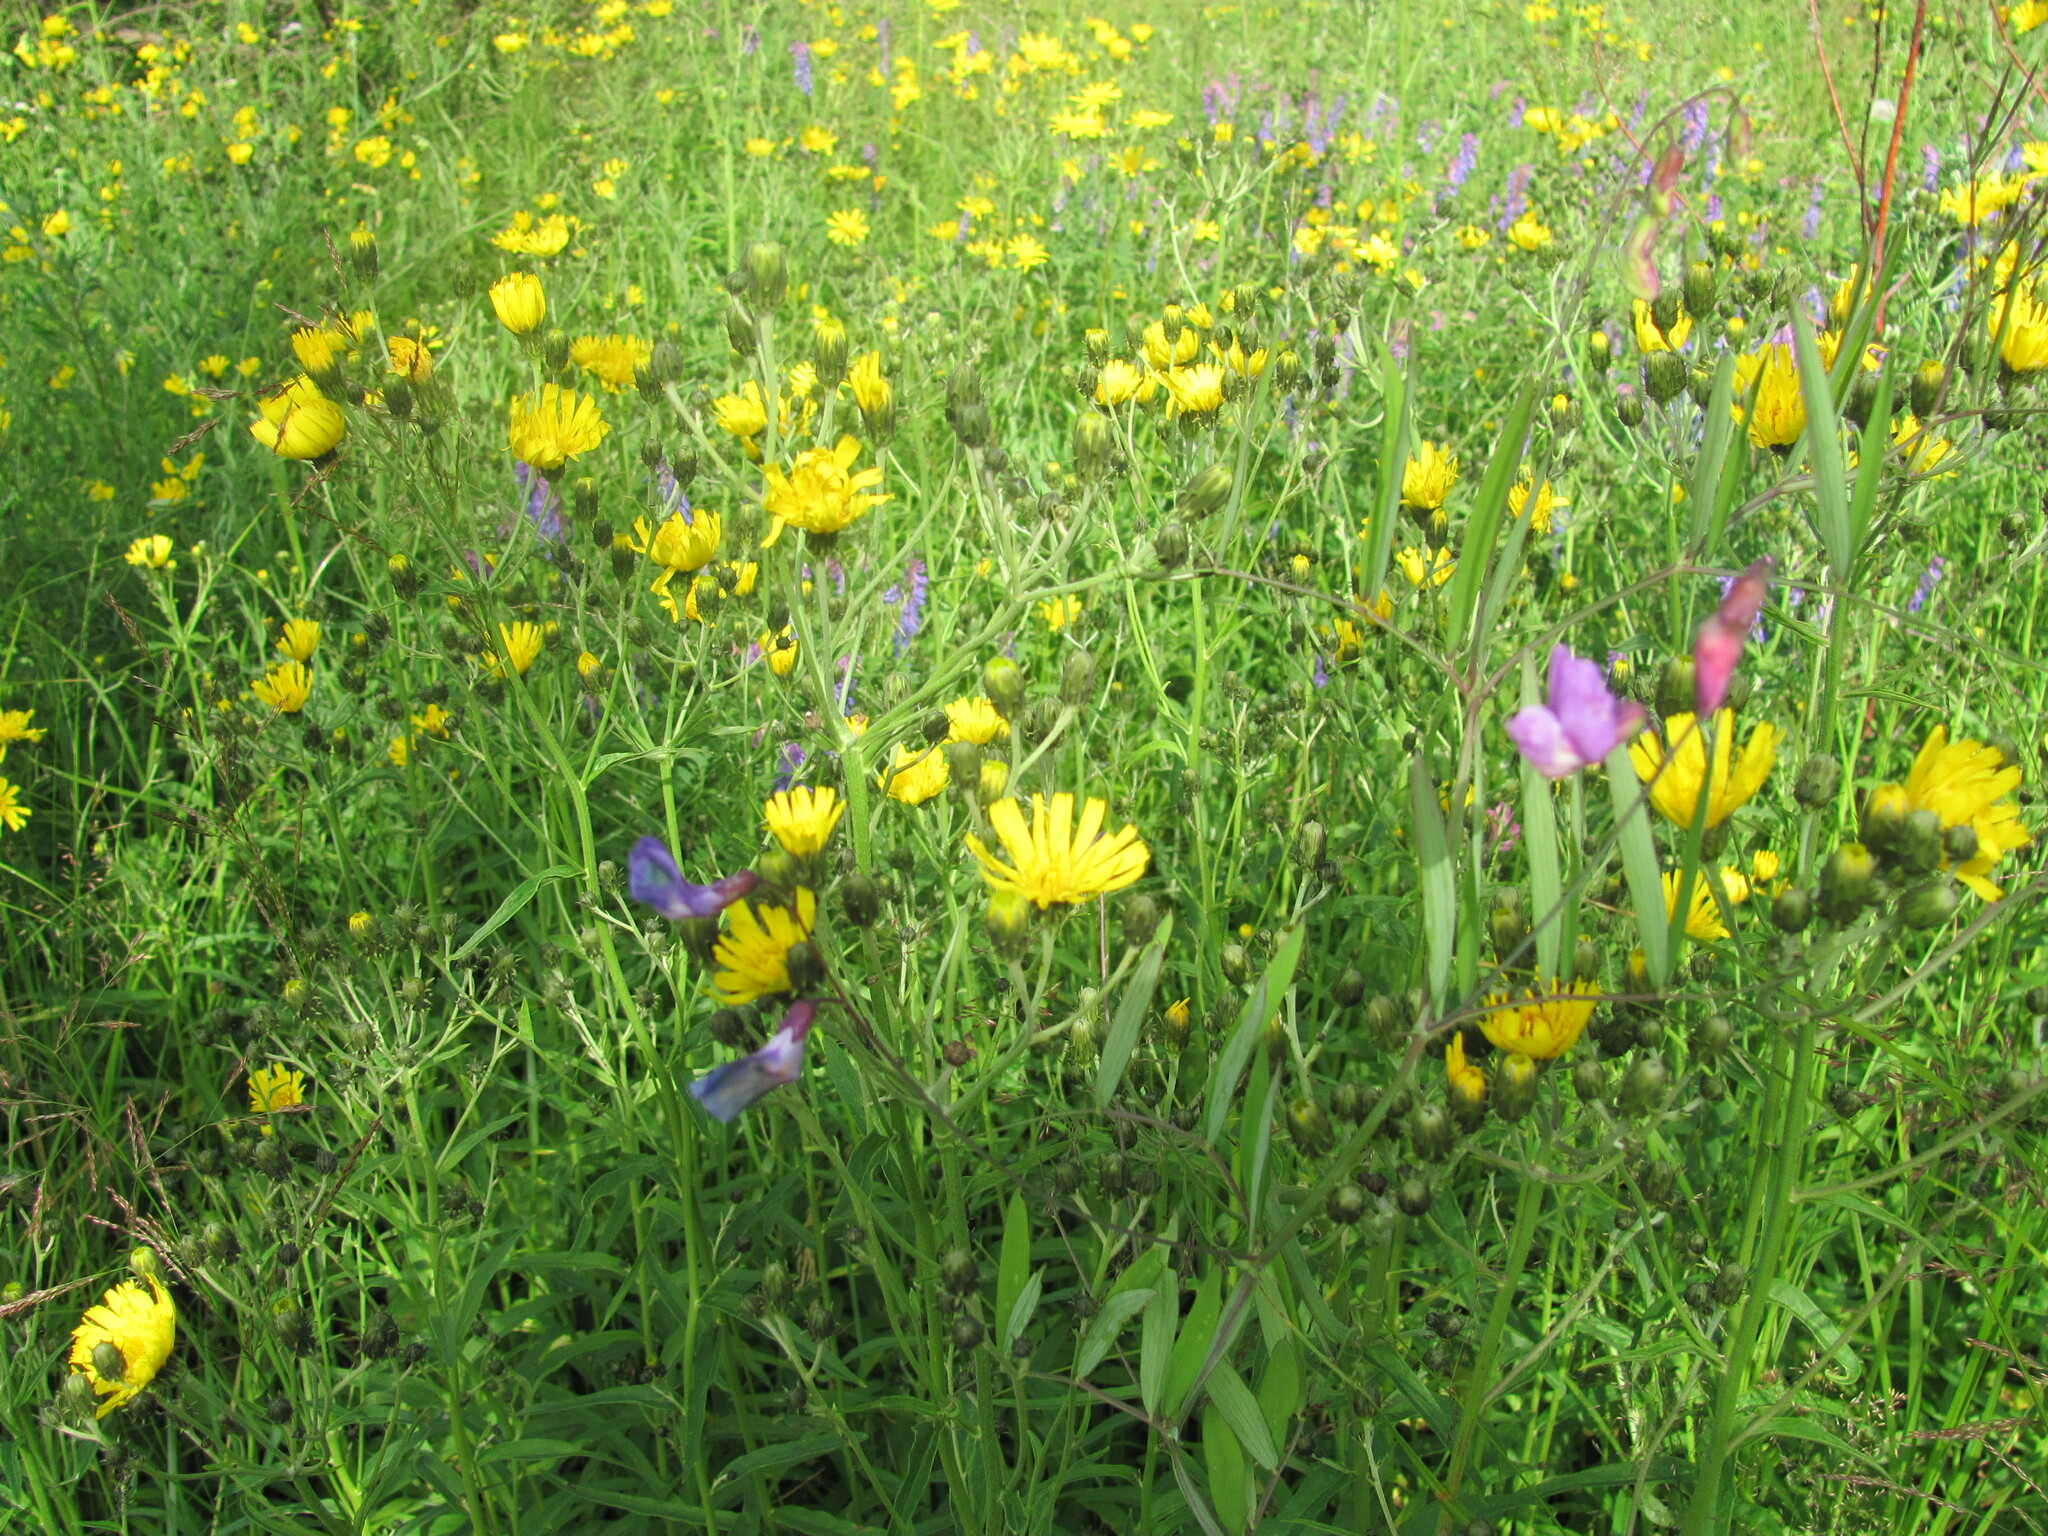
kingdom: Plantae
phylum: Tracheophyta
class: Magnoliopsida
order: Asterales
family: Asteraceae
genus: Hieracium
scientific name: Hieracium umbellatum
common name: Northern hawkweed
